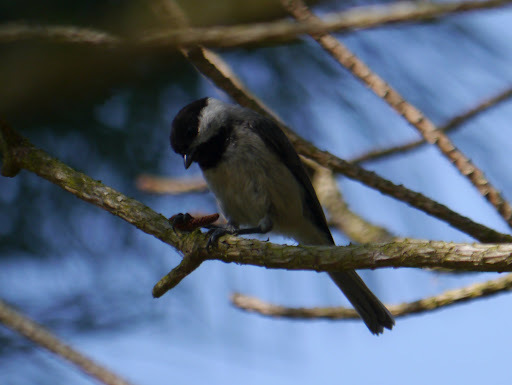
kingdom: Animalia
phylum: Chordata
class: Aves
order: Passeriformes
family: Paridae
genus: Poecile
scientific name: Poecile carolinensis
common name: Carolina chickadee
